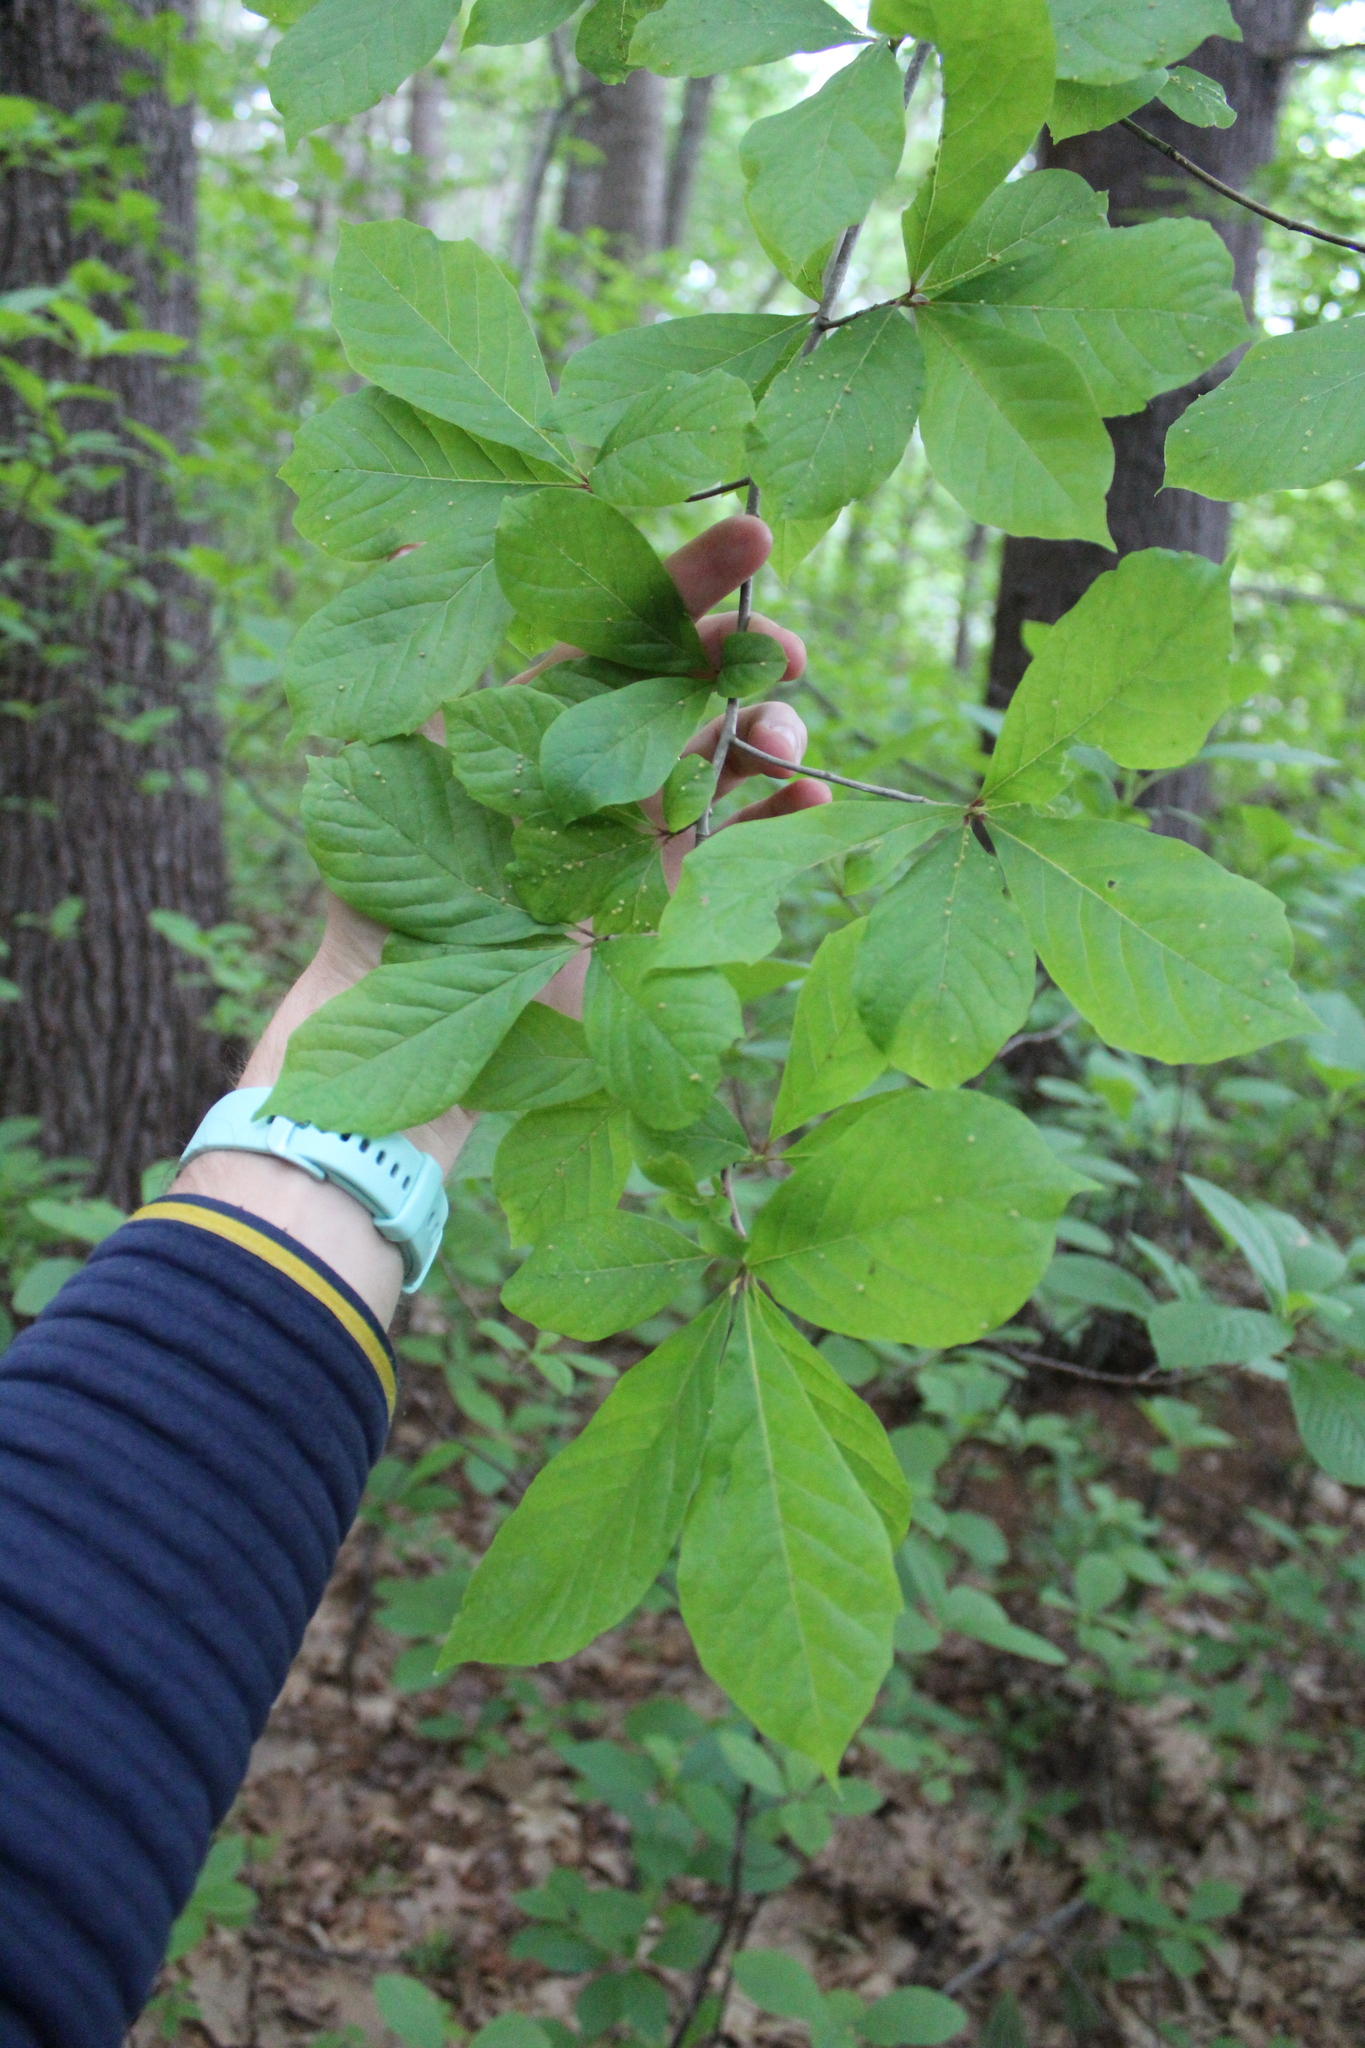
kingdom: Plantae
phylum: Tracheophyta
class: Magnoliopsida
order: Cornales
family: Nyssaceae
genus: Nyssa
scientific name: Nyssa sylvatica
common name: Black tupelo
